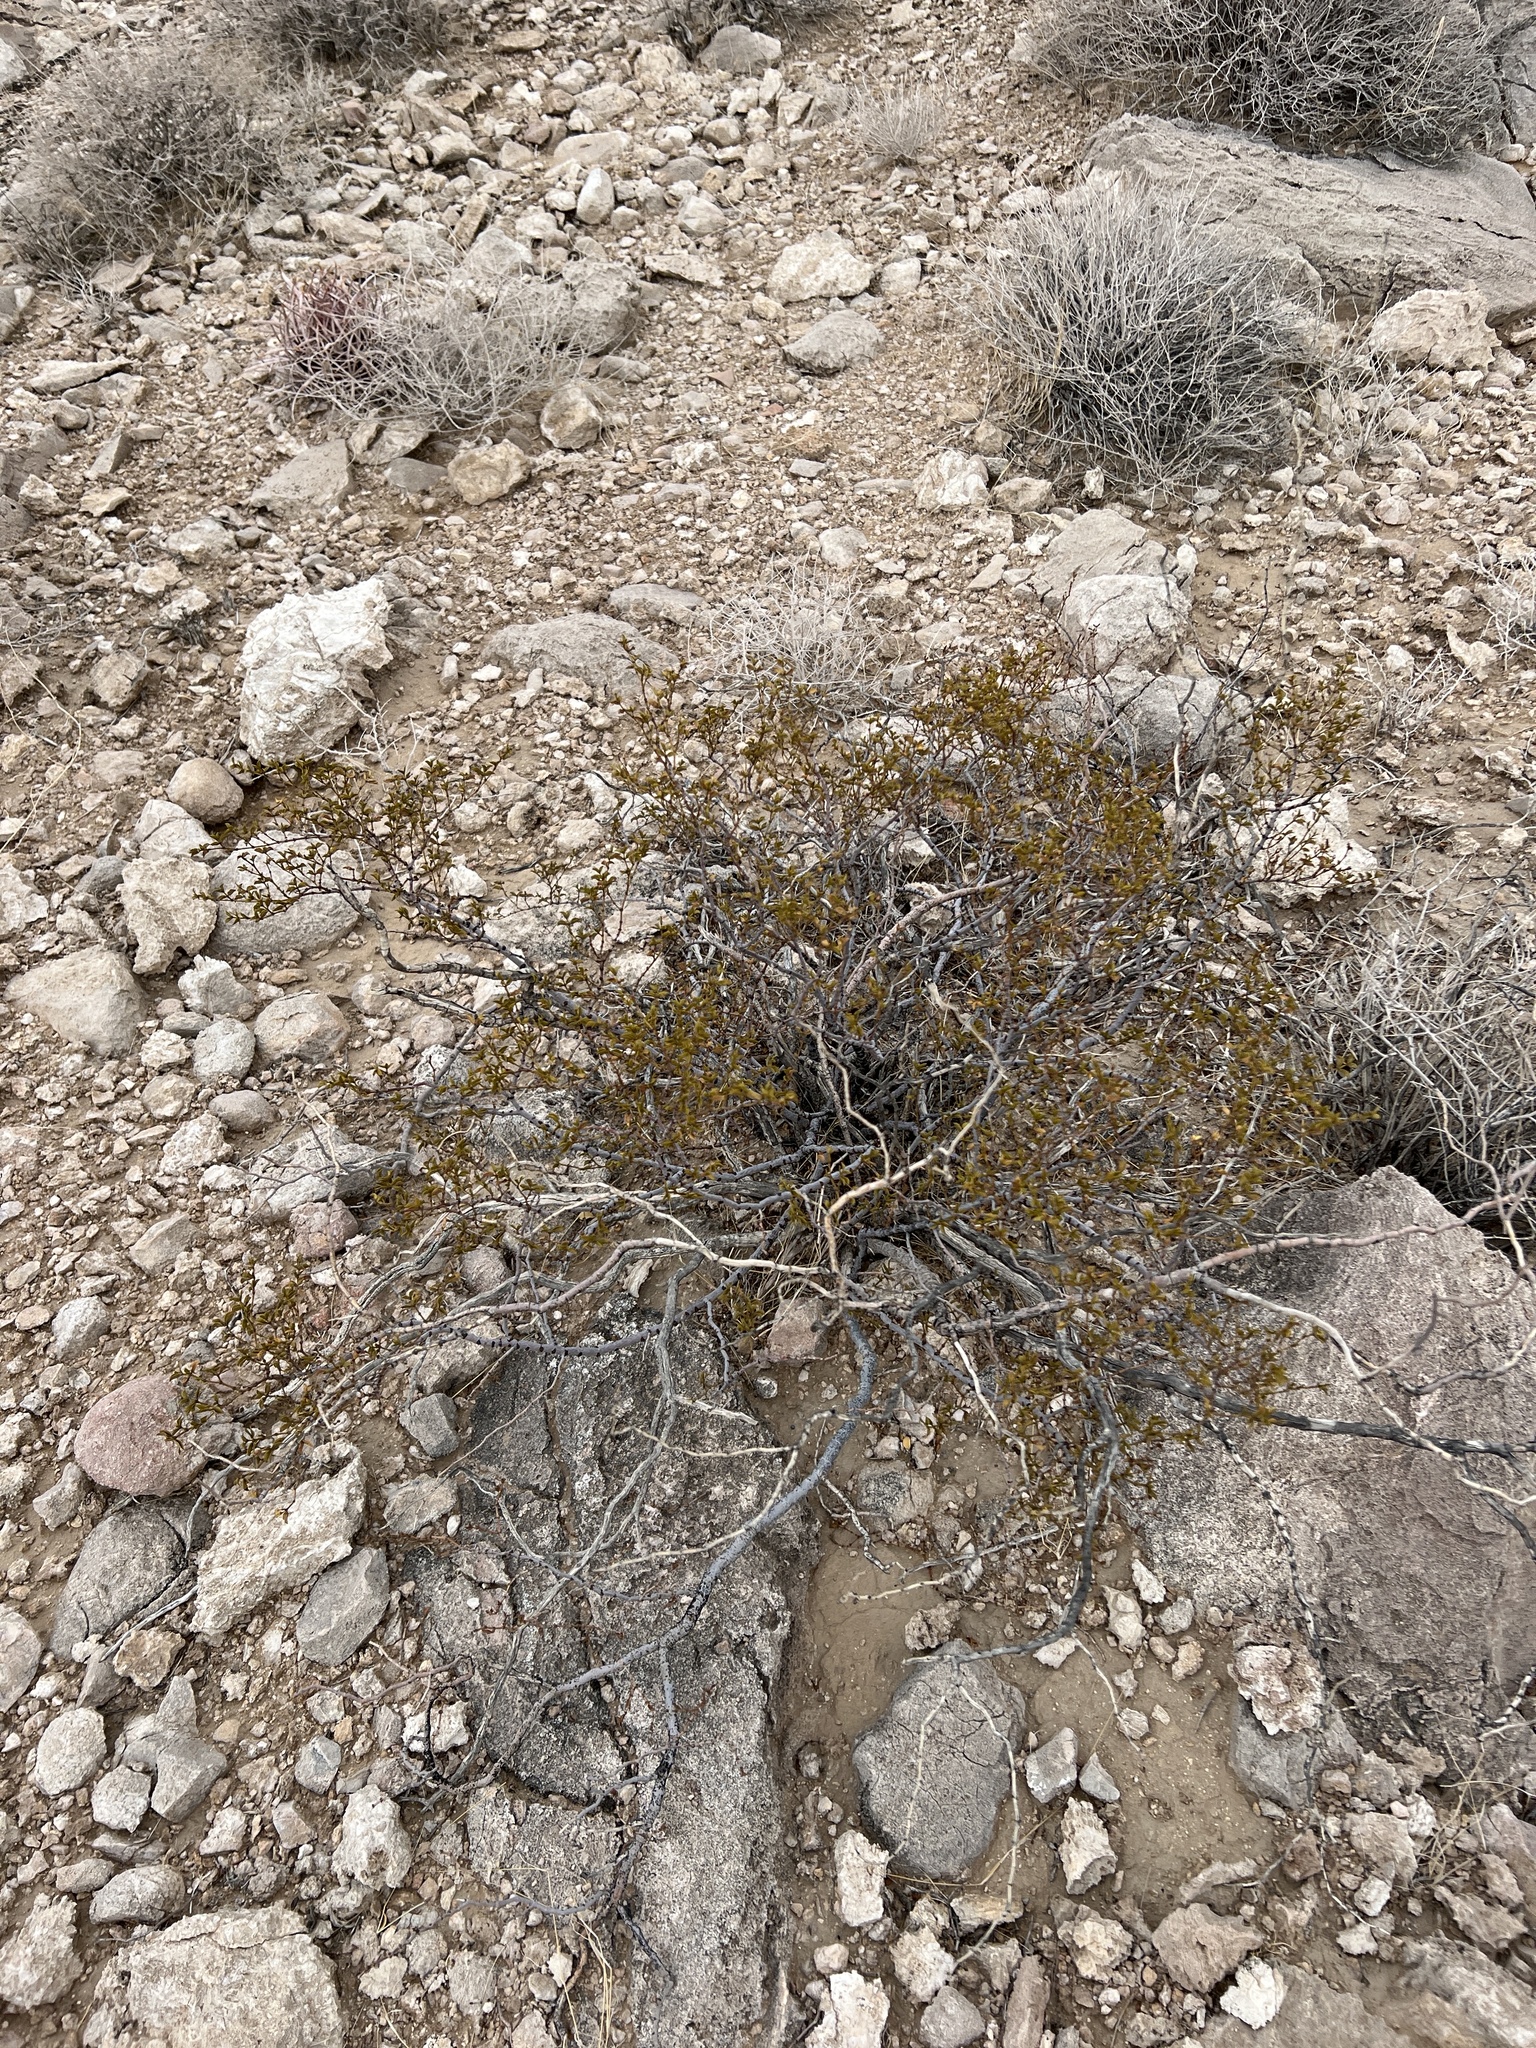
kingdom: Plantae
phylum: Tracheophyta
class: Magnoliopsida
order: Zygophyllales
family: Zygophyllaceae
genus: Larrea
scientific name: Larrea tridentata
